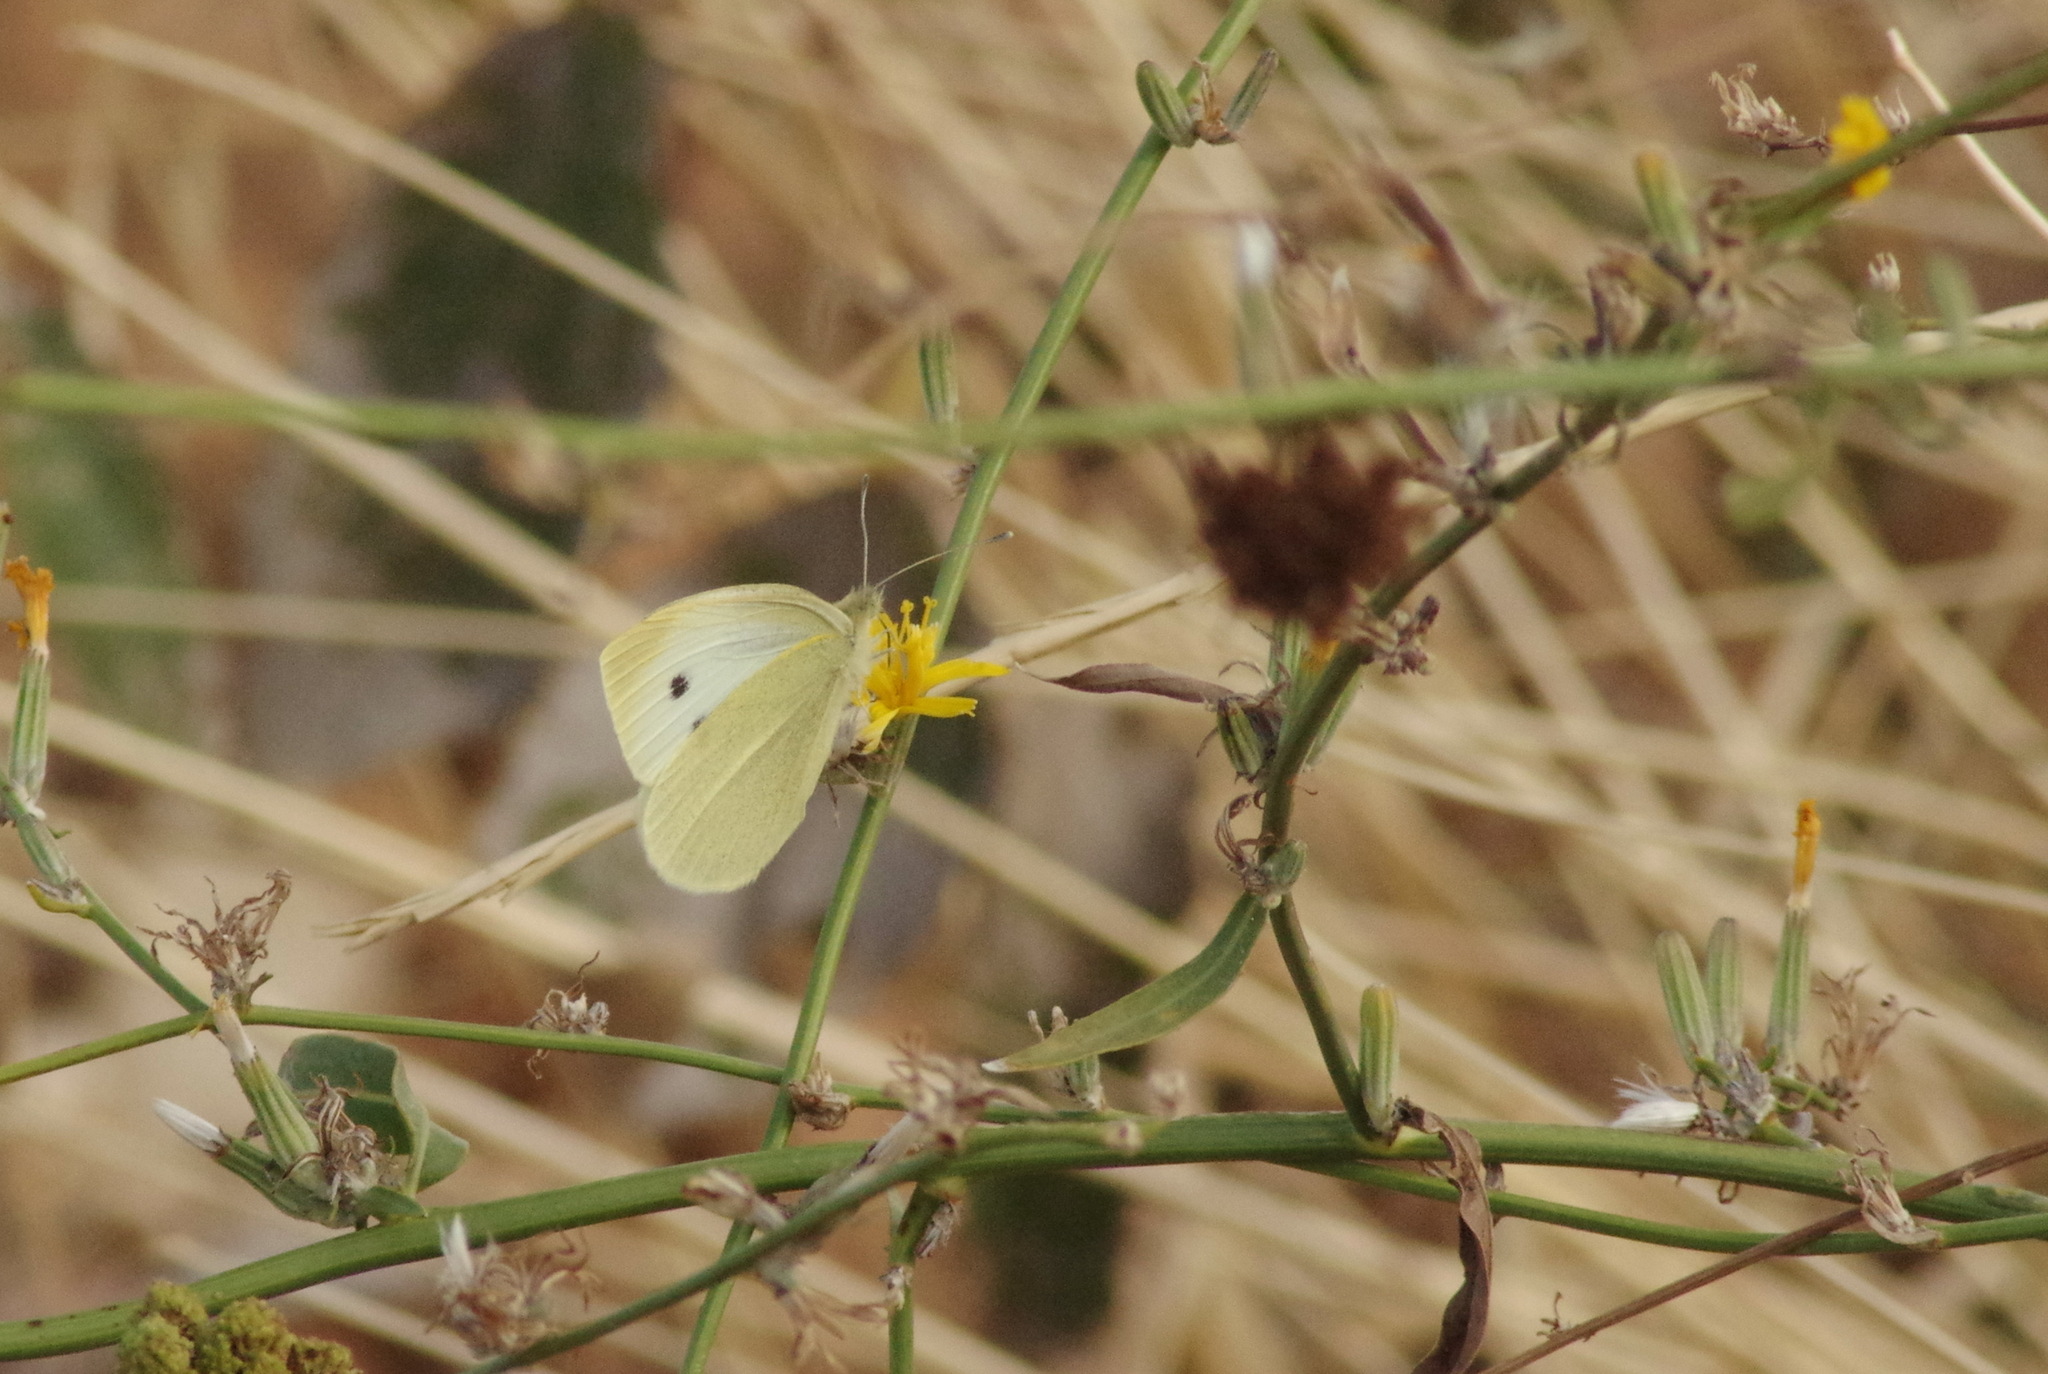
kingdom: Animalia
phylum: Arthropoda
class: Insecta
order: Lepidoptera
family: Pieridae
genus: Pieris
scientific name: Pieris rapae
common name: Small white
